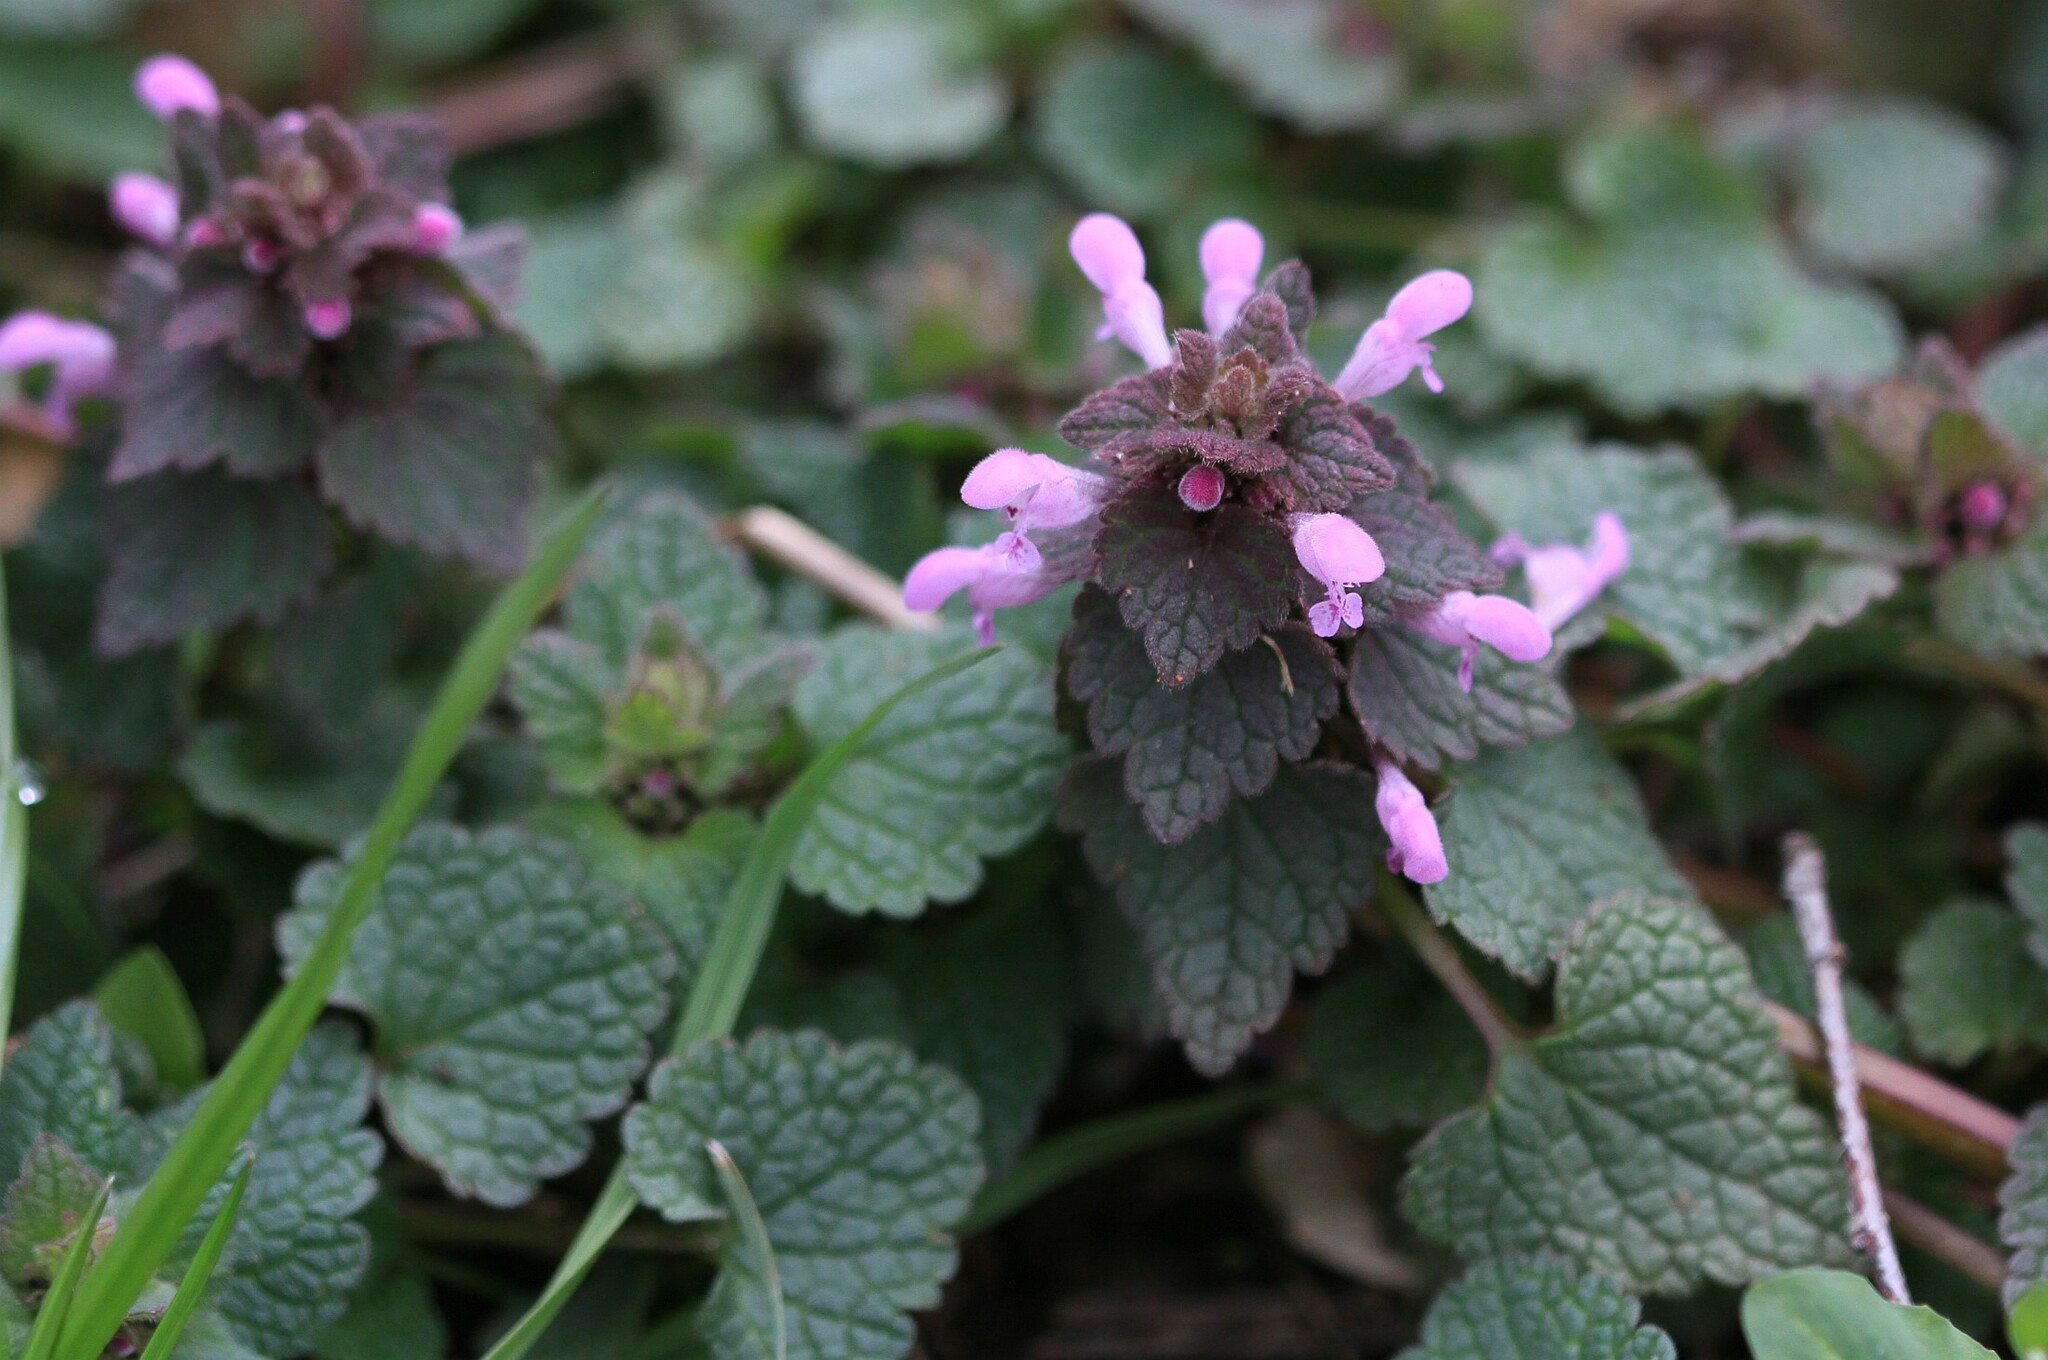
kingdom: Plantae
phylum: Tracheophyta
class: Magnoliopsida
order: Lamiales
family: Lamiaceae
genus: Lamium
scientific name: Lamium purpureum
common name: Red dead-nettle
